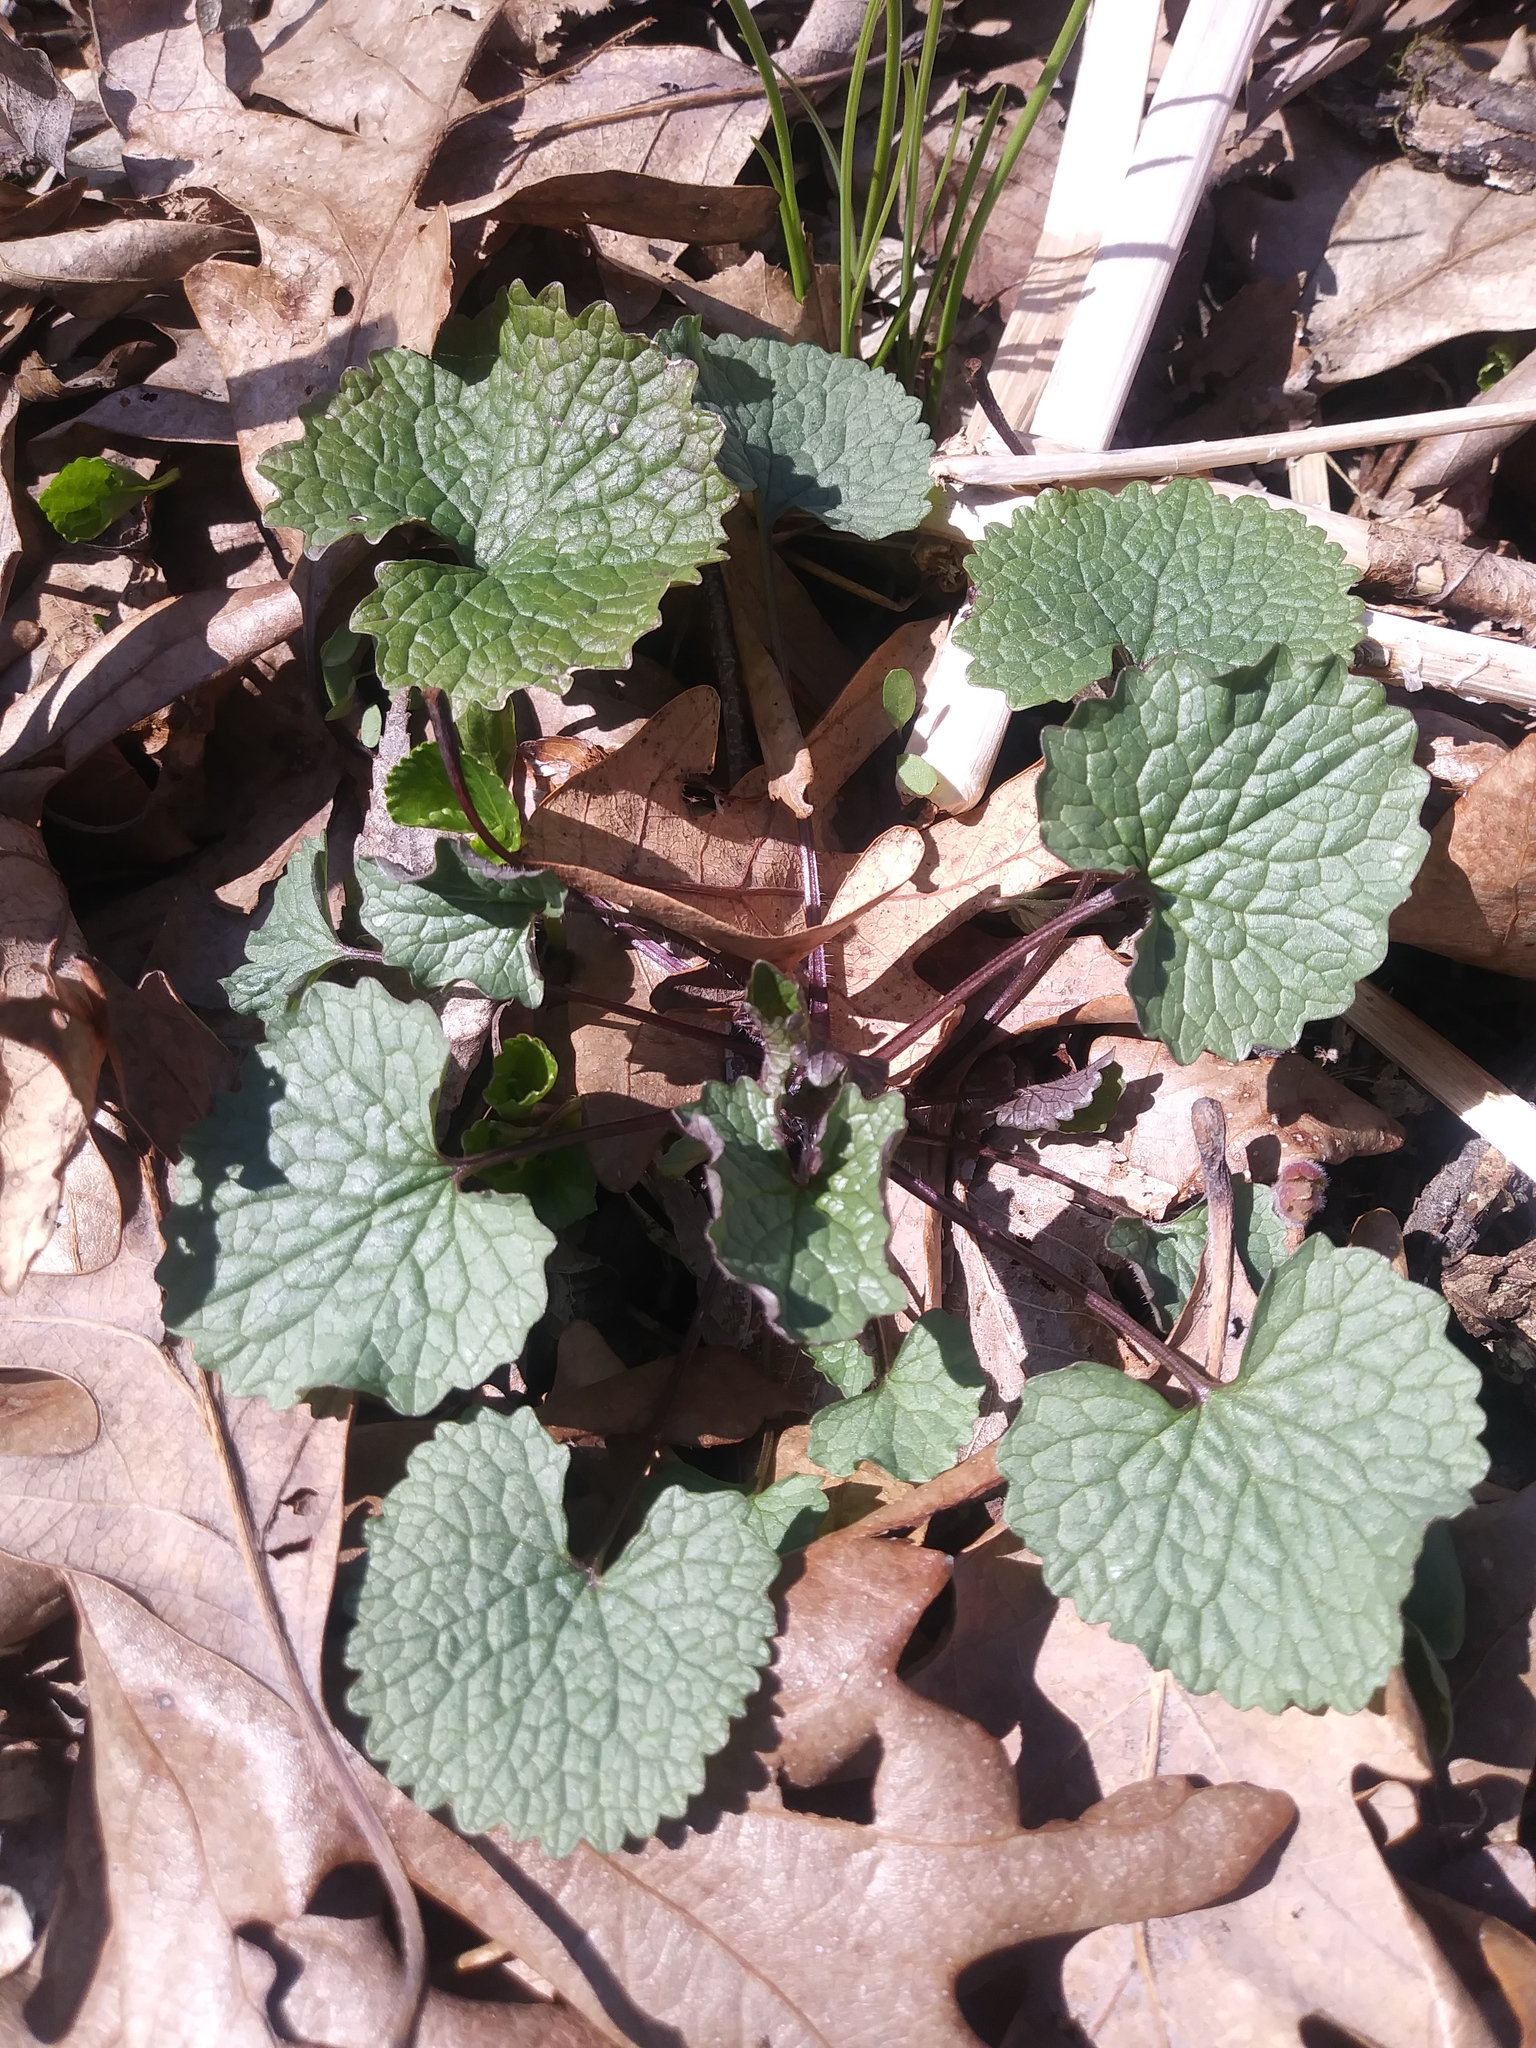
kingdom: Plantae
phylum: Tracheophyta
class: Magnoliopsida
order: Brassicales
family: Brassicaceae
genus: Alliaria
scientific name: Alliaria petiolata
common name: Garlic mustard
